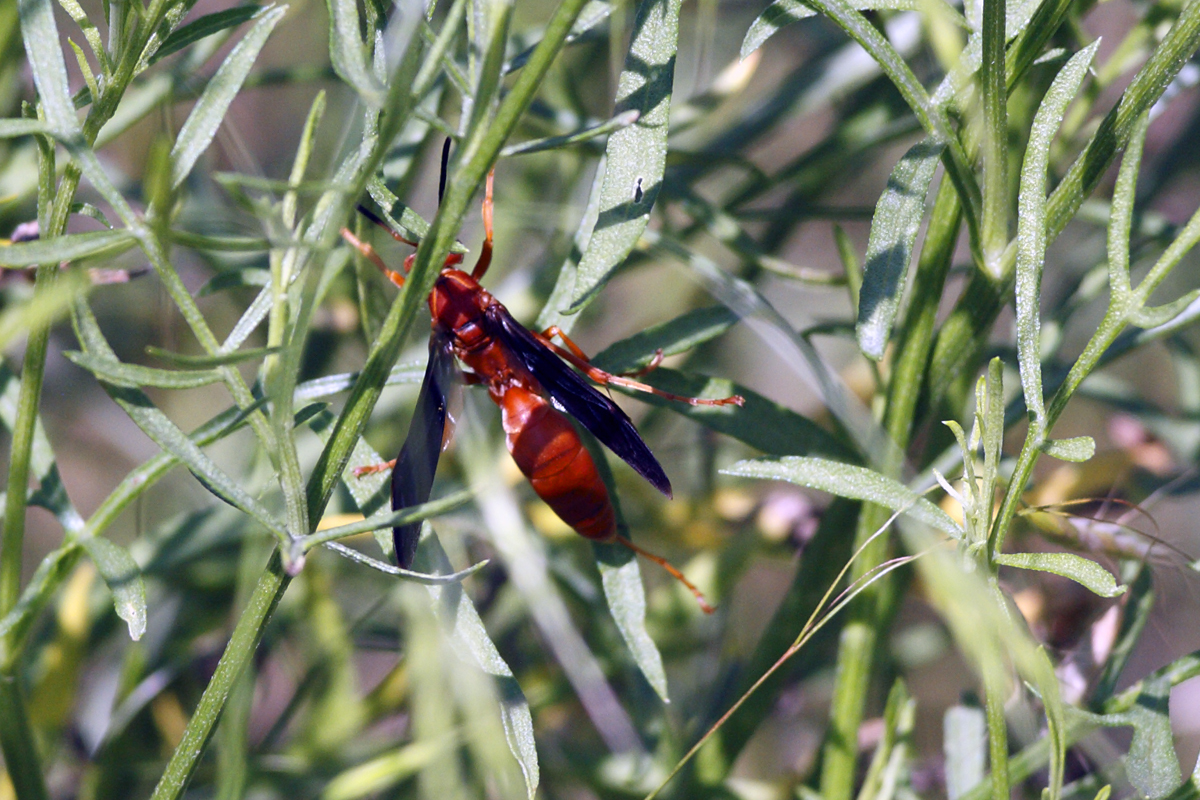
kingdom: Animalia
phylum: Arthropoda
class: Insecta
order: Hymenoptera
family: Eumenidae
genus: Polistes
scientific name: Polistes carolina
